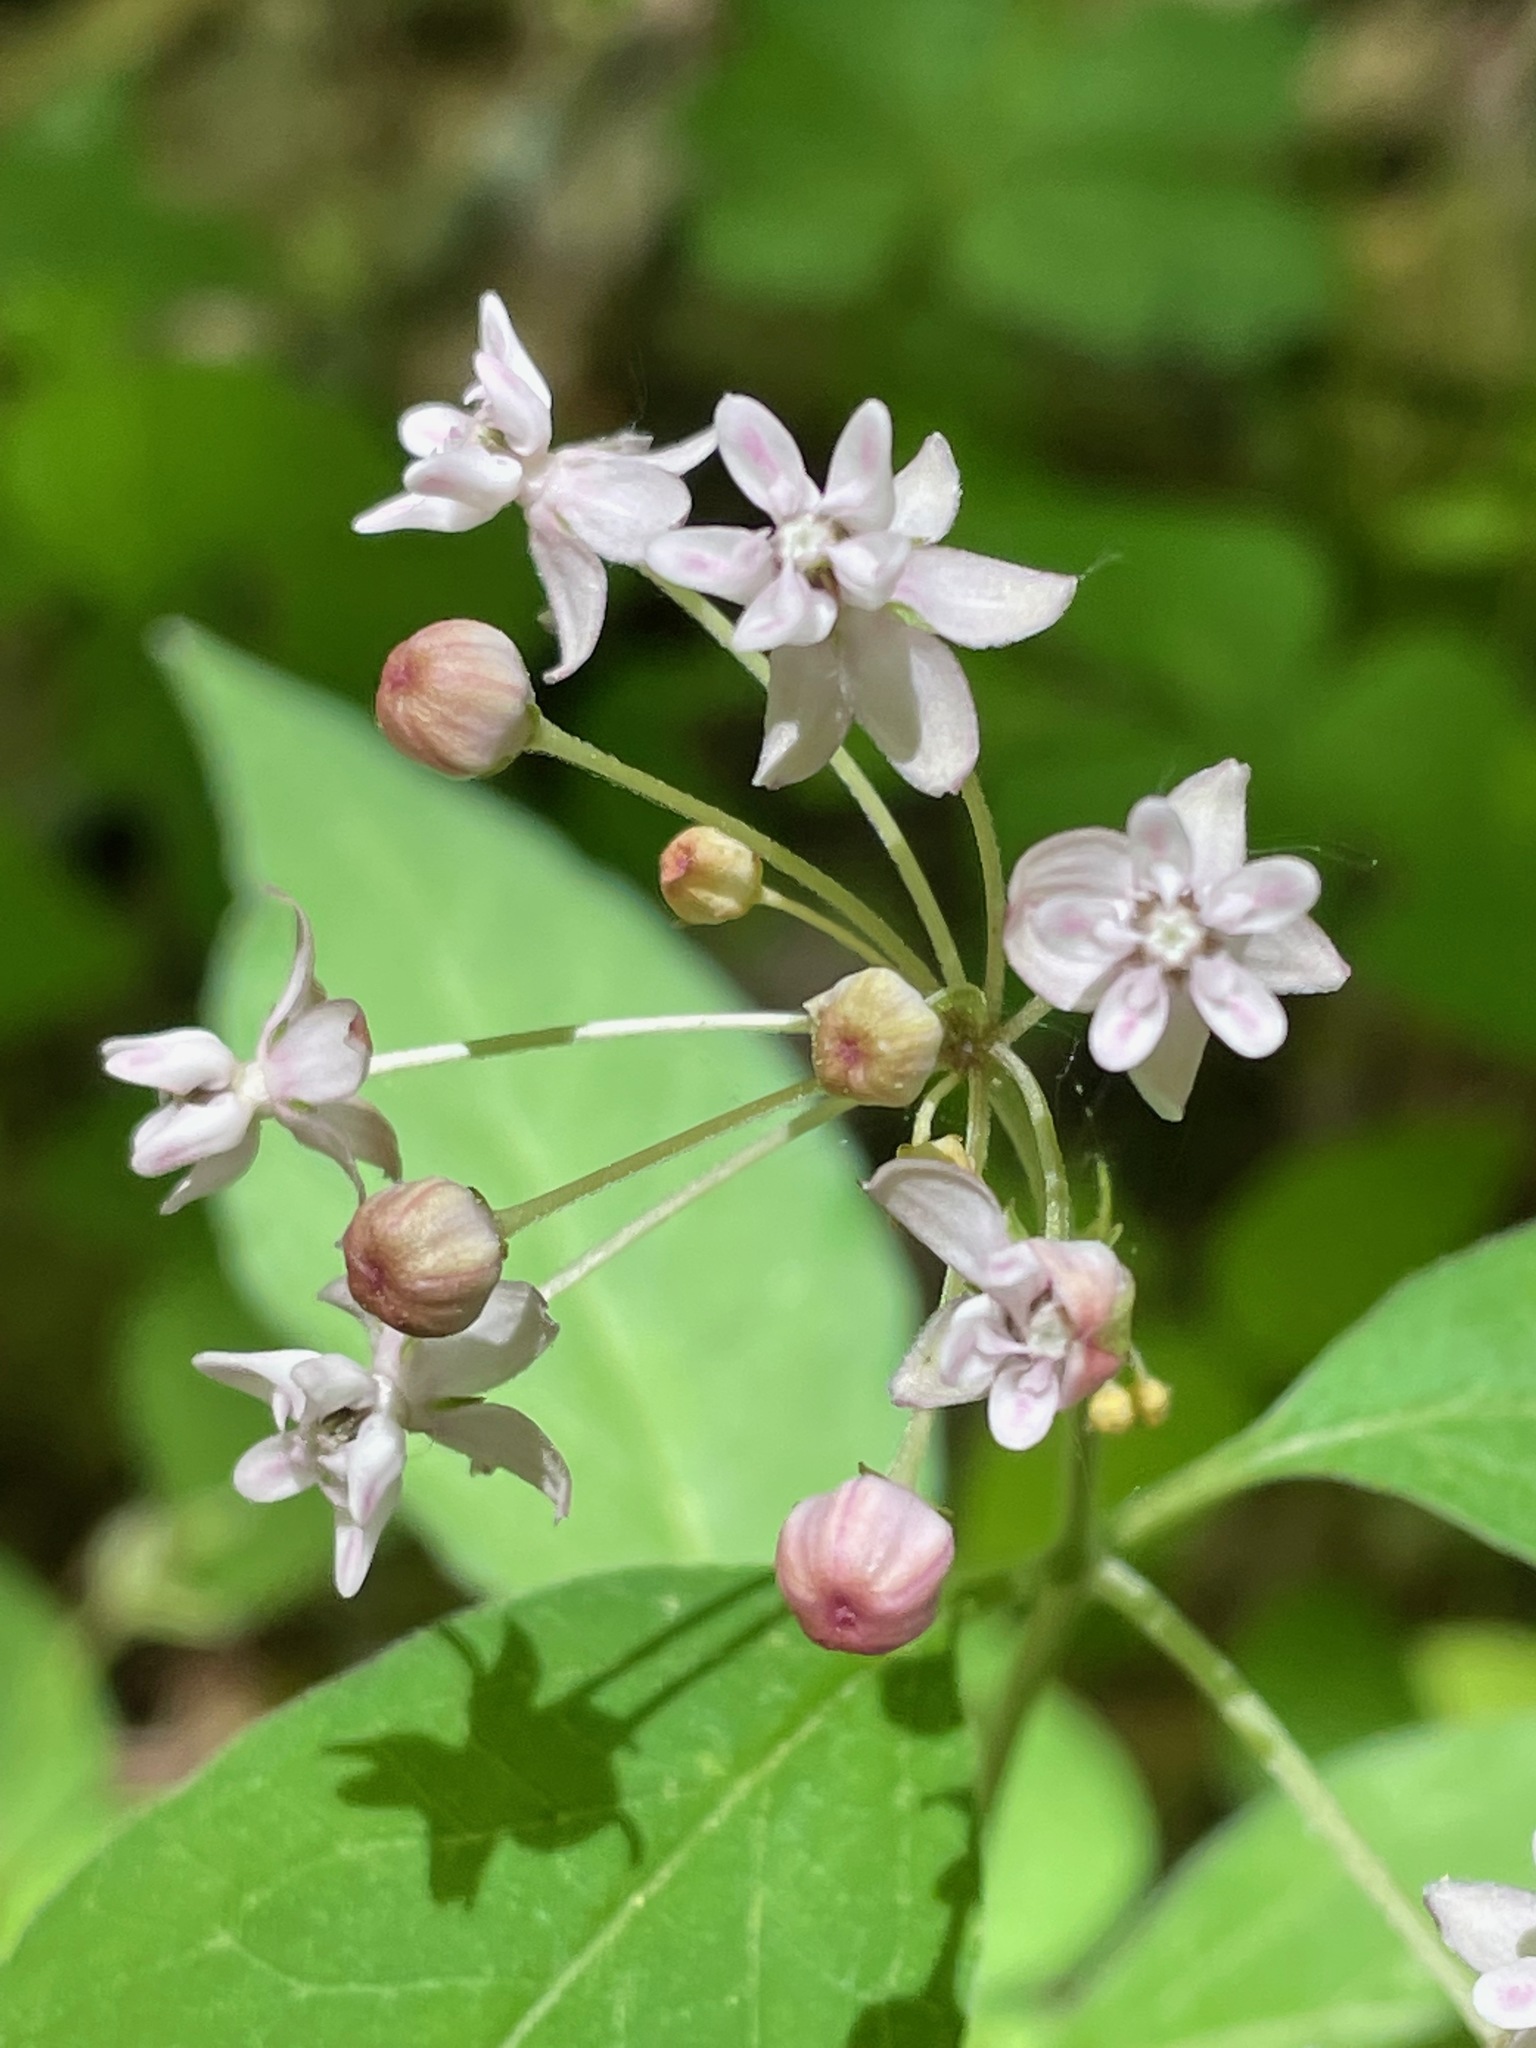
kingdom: Plantae
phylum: Tracheophyta
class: Magnoliopsida
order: Gentianales
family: Apocynaceae
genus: Asclepias
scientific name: Asclepias quadrifolia
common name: Whorled milkweed
